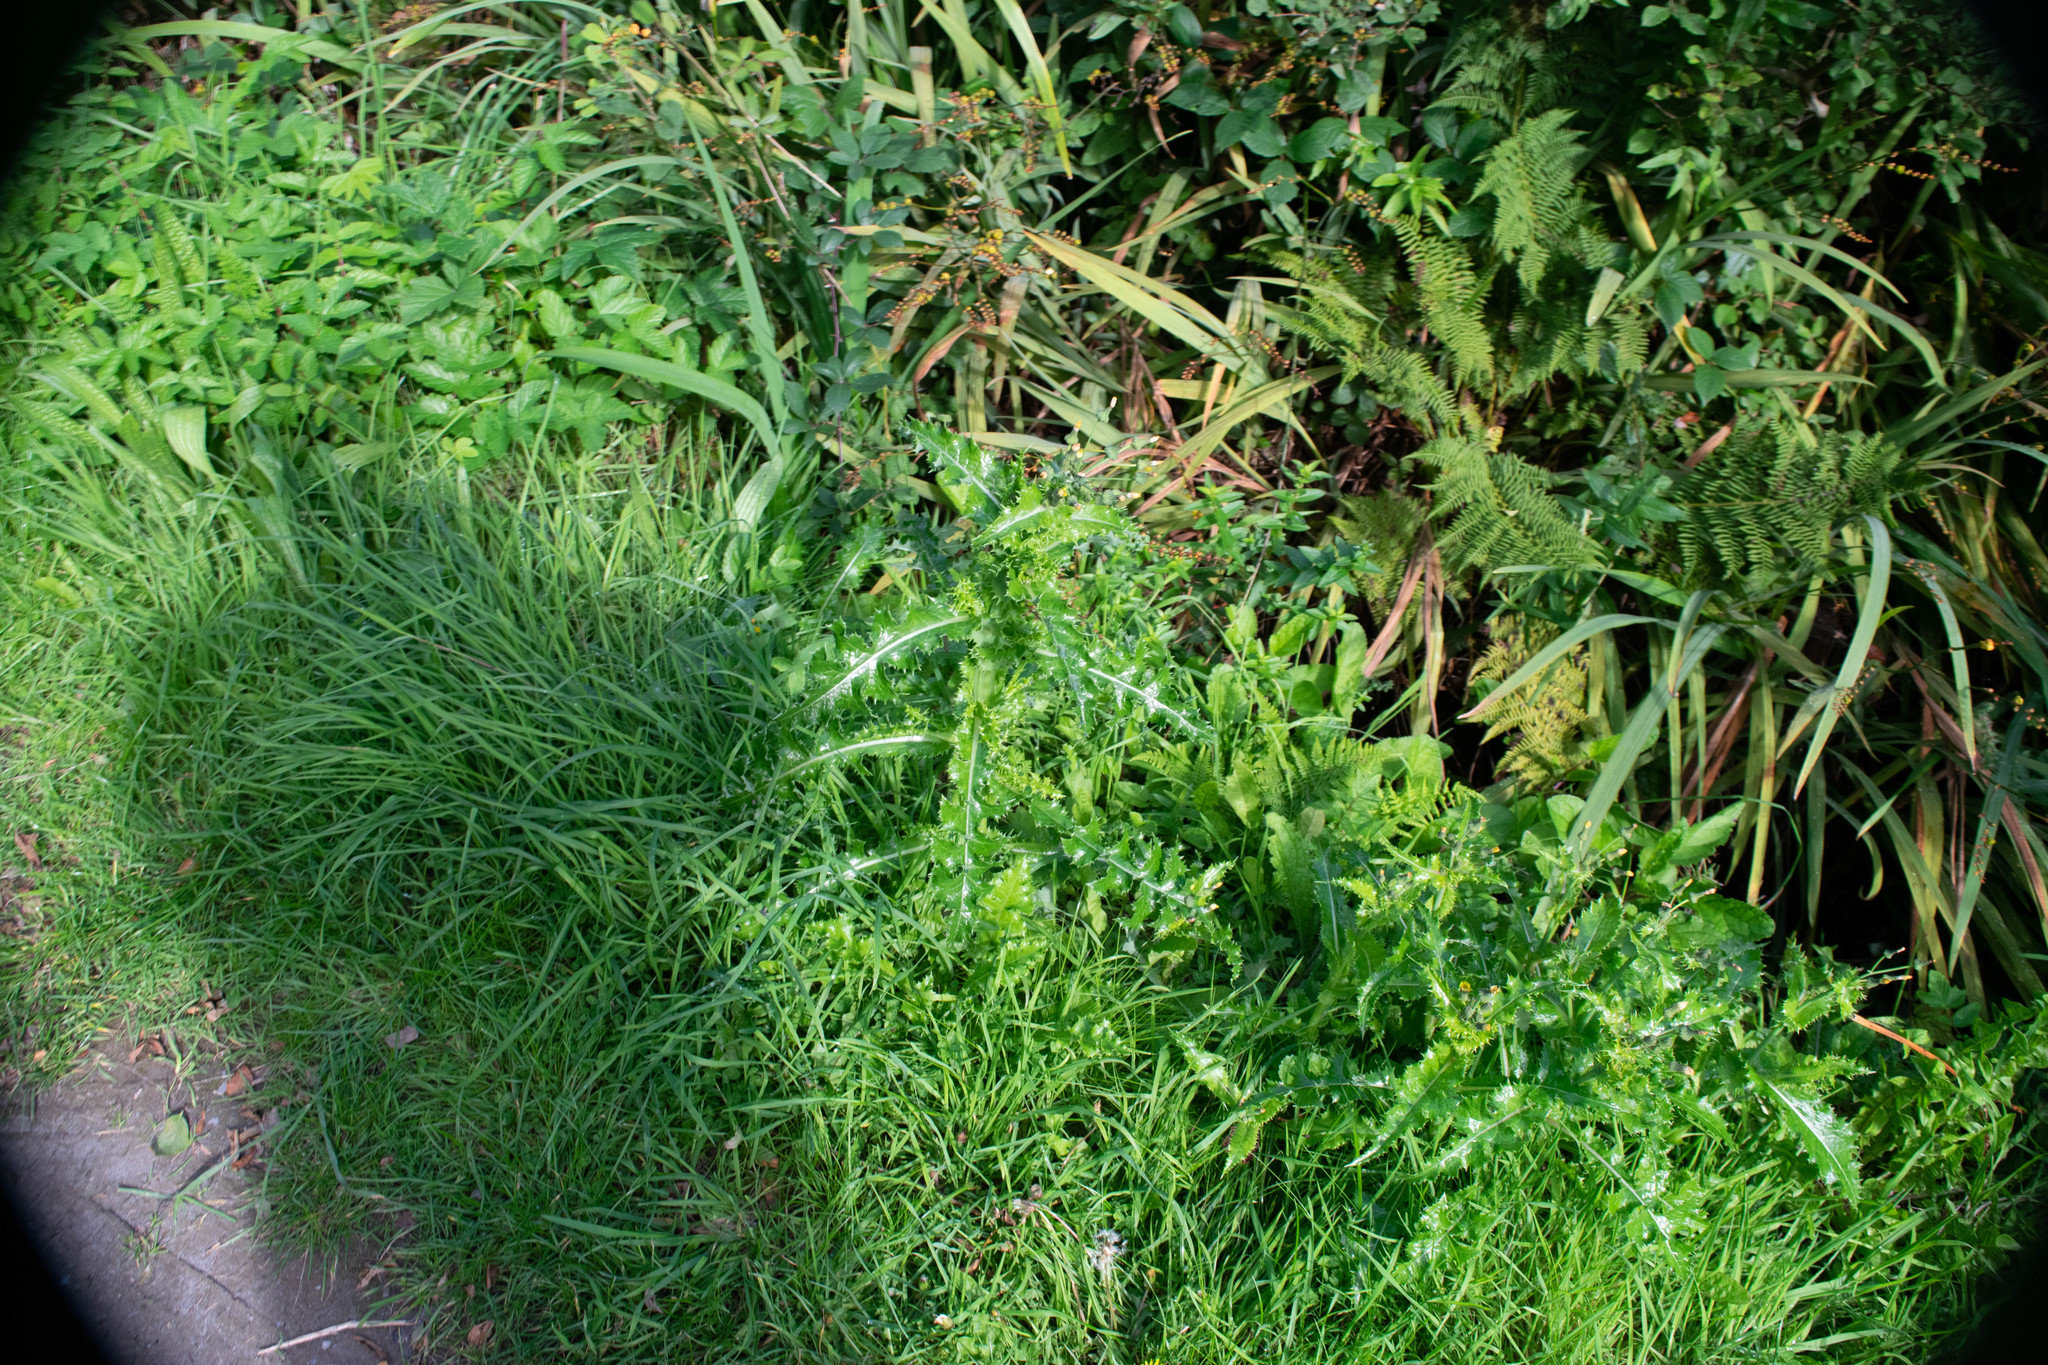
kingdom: Plantae
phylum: Tracheophyta
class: Magnoliopsida
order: Asterales
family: Asteraceae
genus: Sonchus
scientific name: Sonchus asper
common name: Prickly sow-thistle
